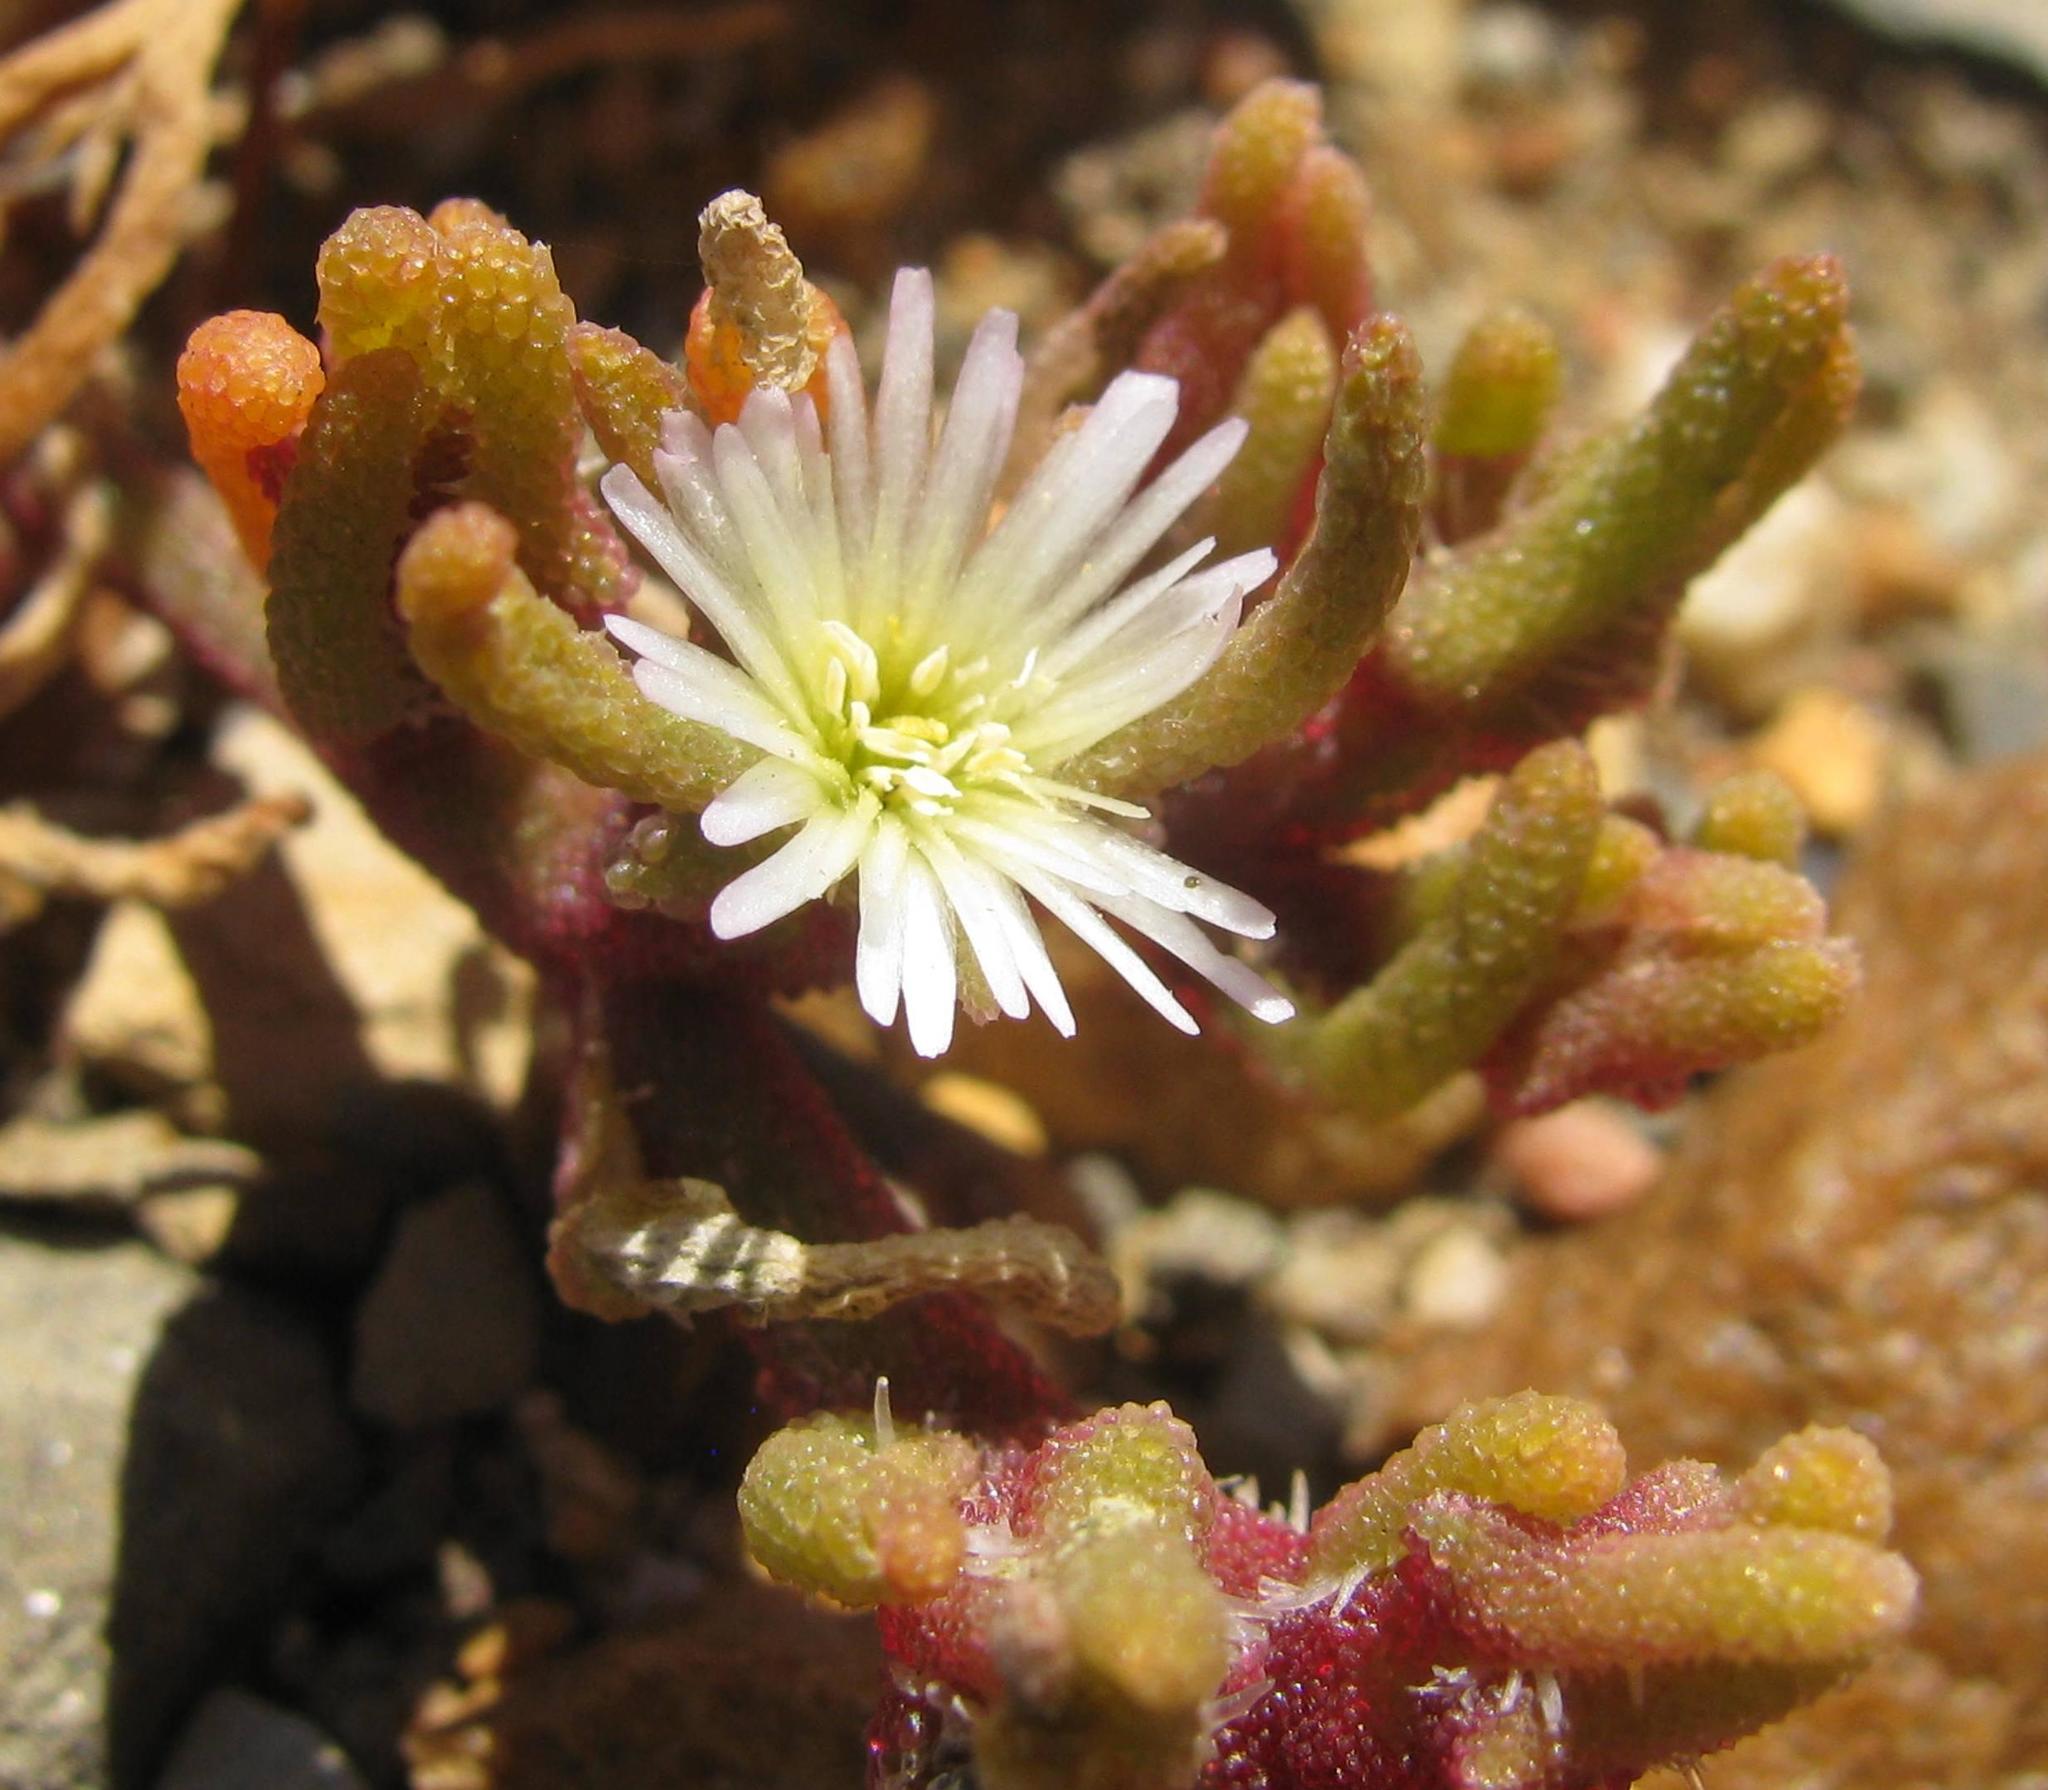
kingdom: Plantae
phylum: Tracheophyta
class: Magnoliopsida
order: Caryophyllales
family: Aizoaceae
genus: Mesembryanthemum
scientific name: Mesembryanthemum nodiflorum
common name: Slenderleaf iceplant
